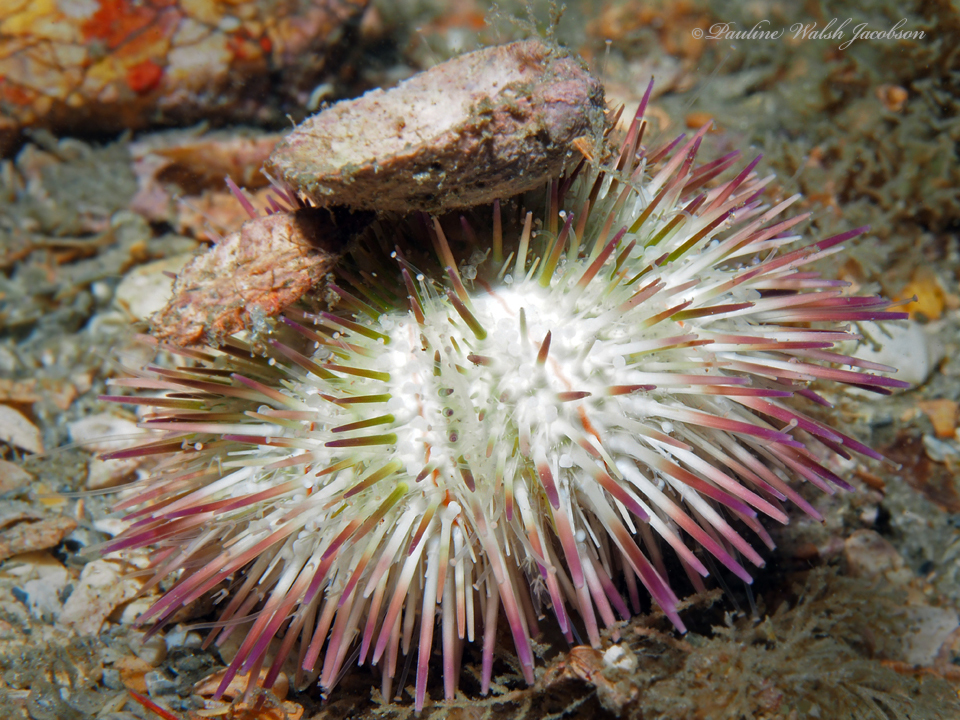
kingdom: Animalia
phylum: Echinodermata
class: Echinoidea
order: Camarodonta
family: Toxopneustidae
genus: Lytechinus
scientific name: Lytechinus variegatus
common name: Variegated urchin
